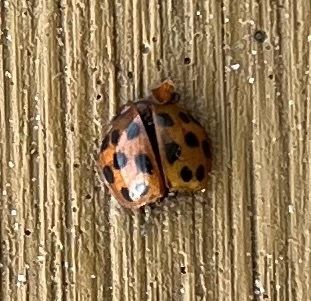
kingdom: Animalia
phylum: Arthropoda
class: Insecta
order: Coleoptera
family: Coccinellidae
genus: Harmonia
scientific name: Harmonia axyridis
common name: Harlequin ladybird
